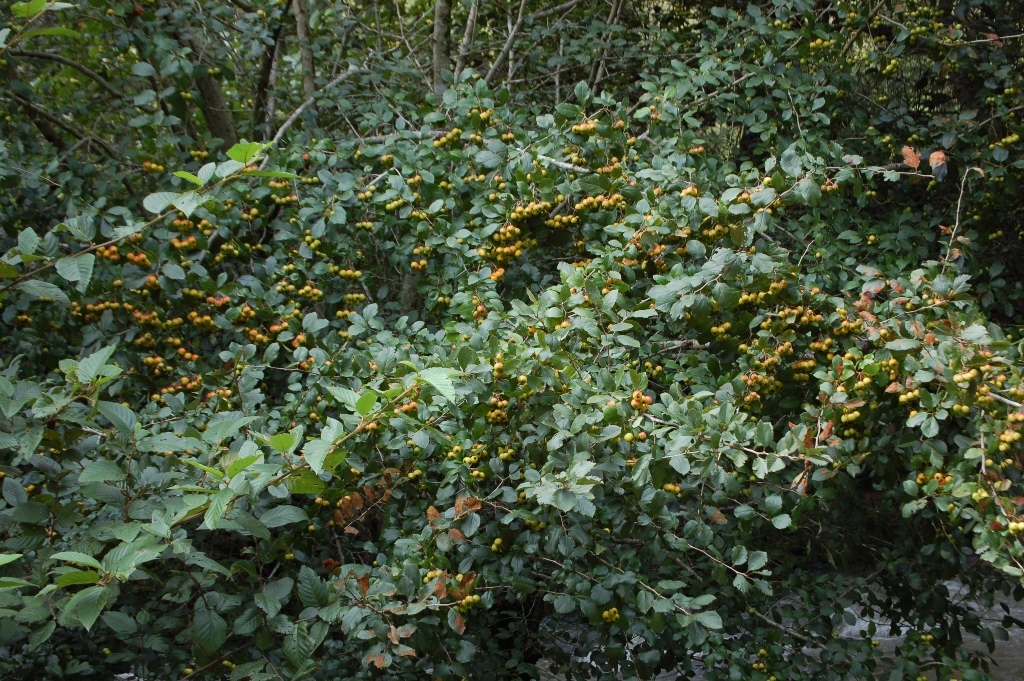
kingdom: Plantae
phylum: Tracheophyta
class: Magnoliopsida
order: Rosales
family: Rosaceae
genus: Crataegus
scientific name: Crataegus mexicana
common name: Mexican hawthorn
